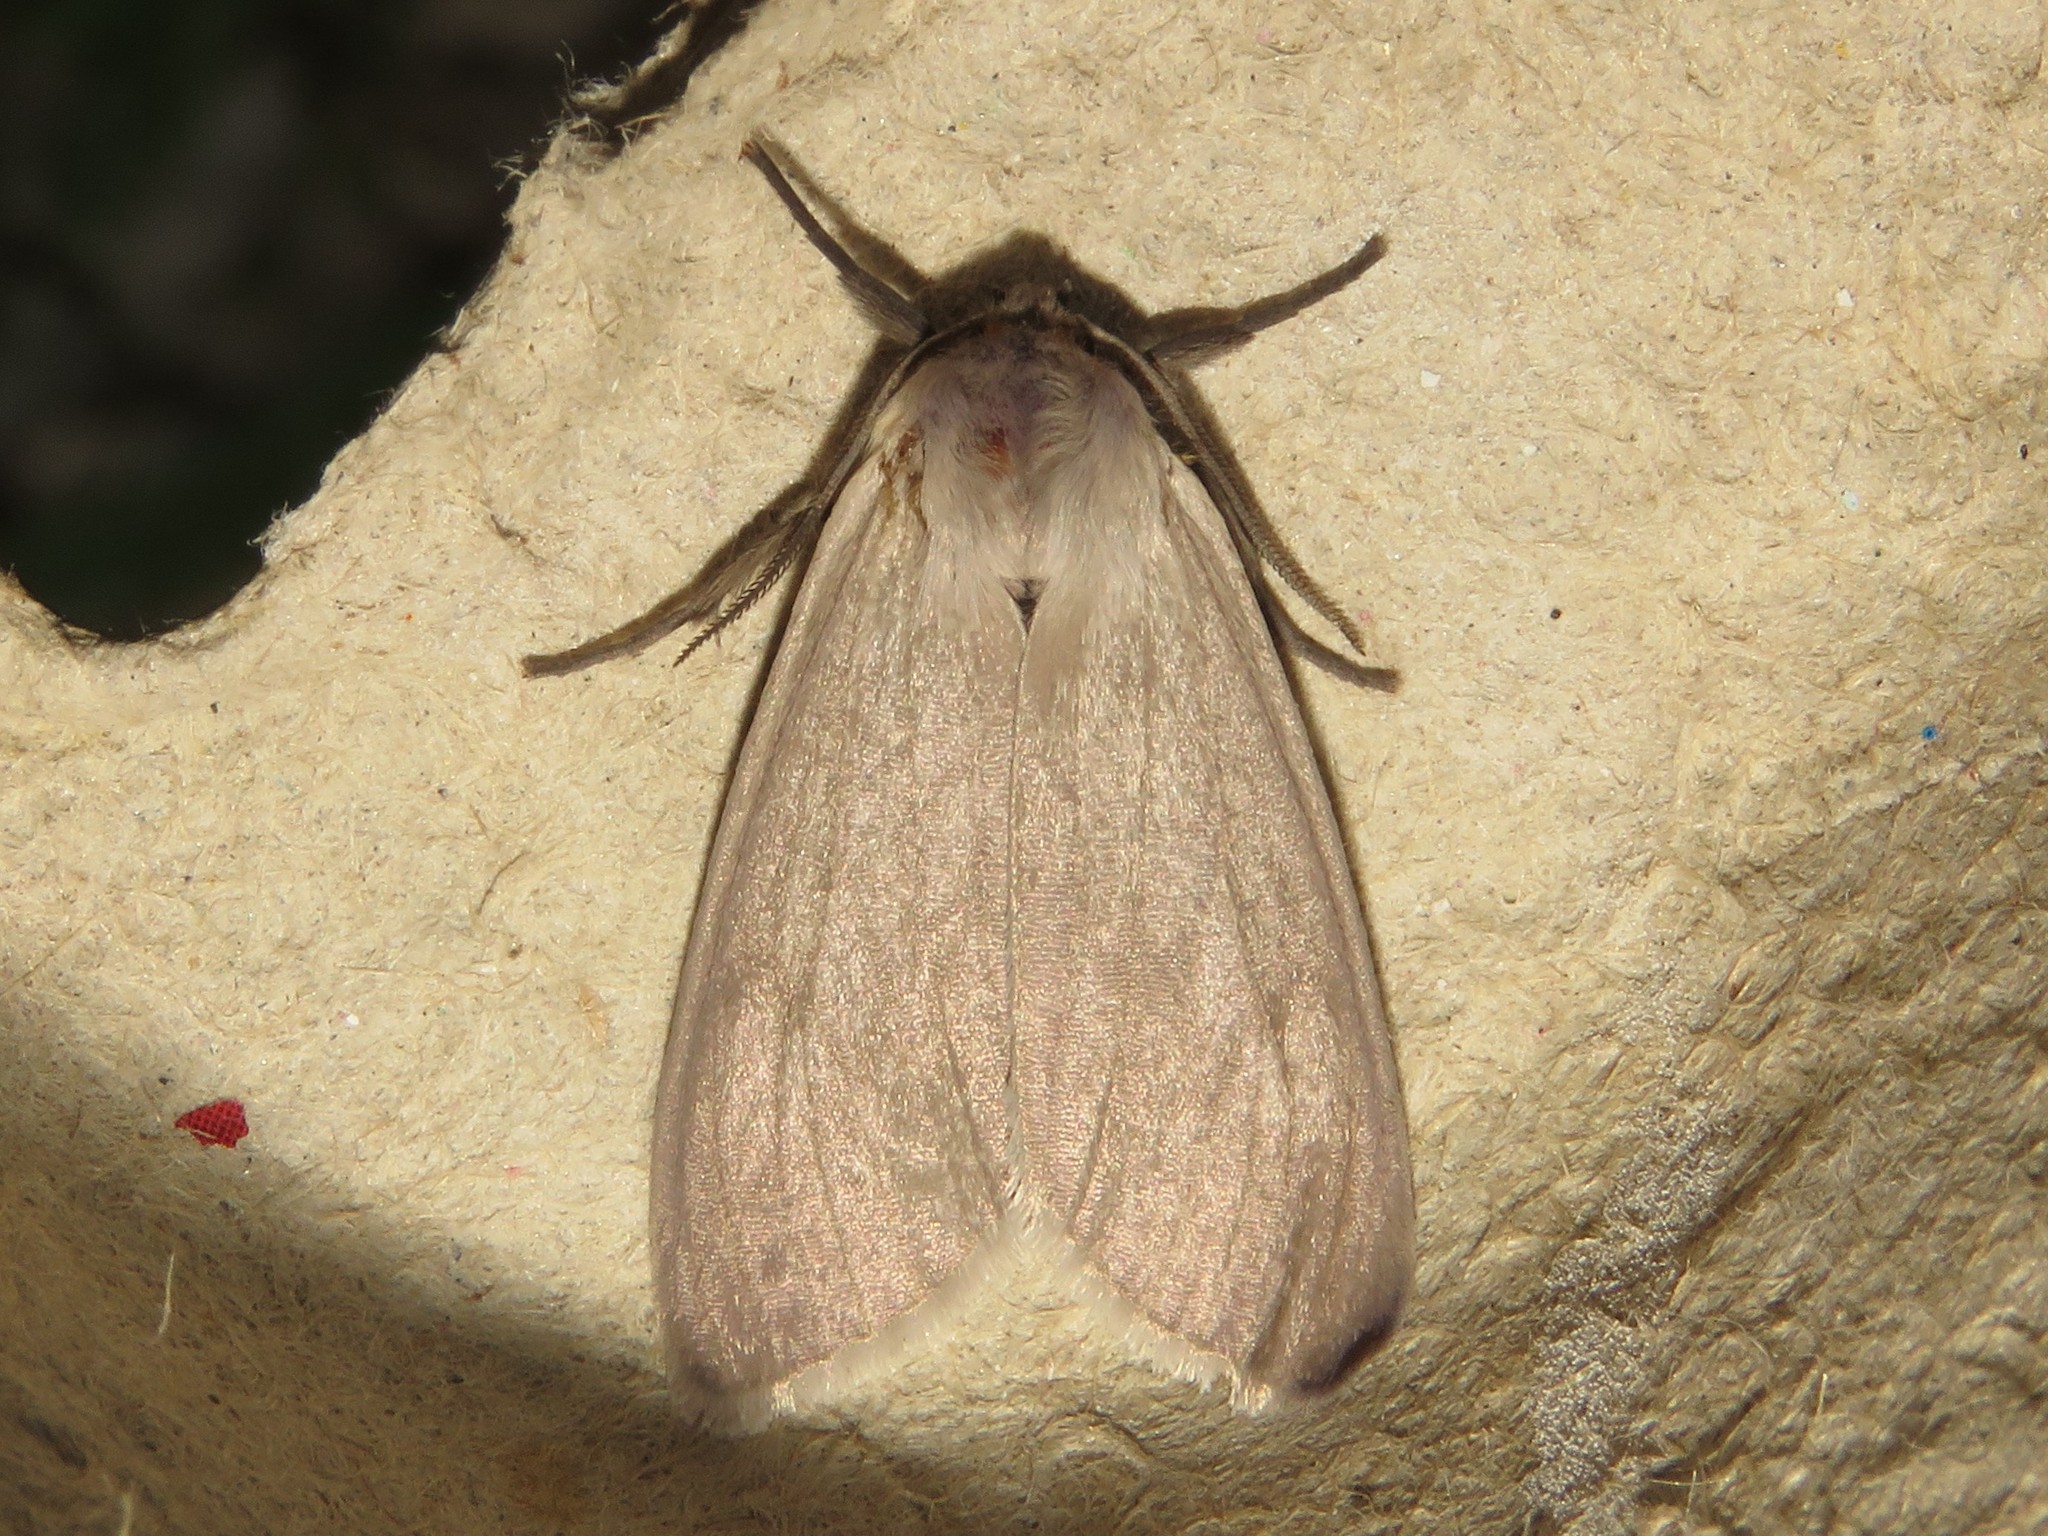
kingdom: Animalia
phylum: Arthropoda
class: Insecta
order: Lepidoptera
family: Erebidae
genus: Euchaetes
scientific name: Euchaetes egle
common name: Milkweed tussock moth
